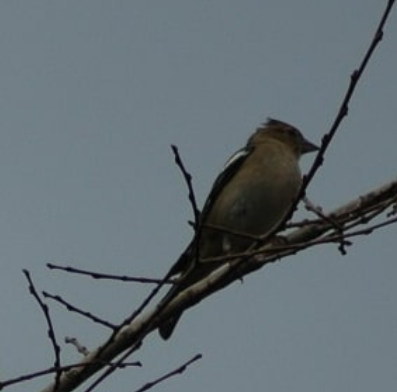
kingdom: Animalia
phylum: Chordata
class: Aves
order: Passeriformes
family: Fringillidae
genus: Fringilla
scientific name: Fringilla coelebs
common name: Common chaffinch
